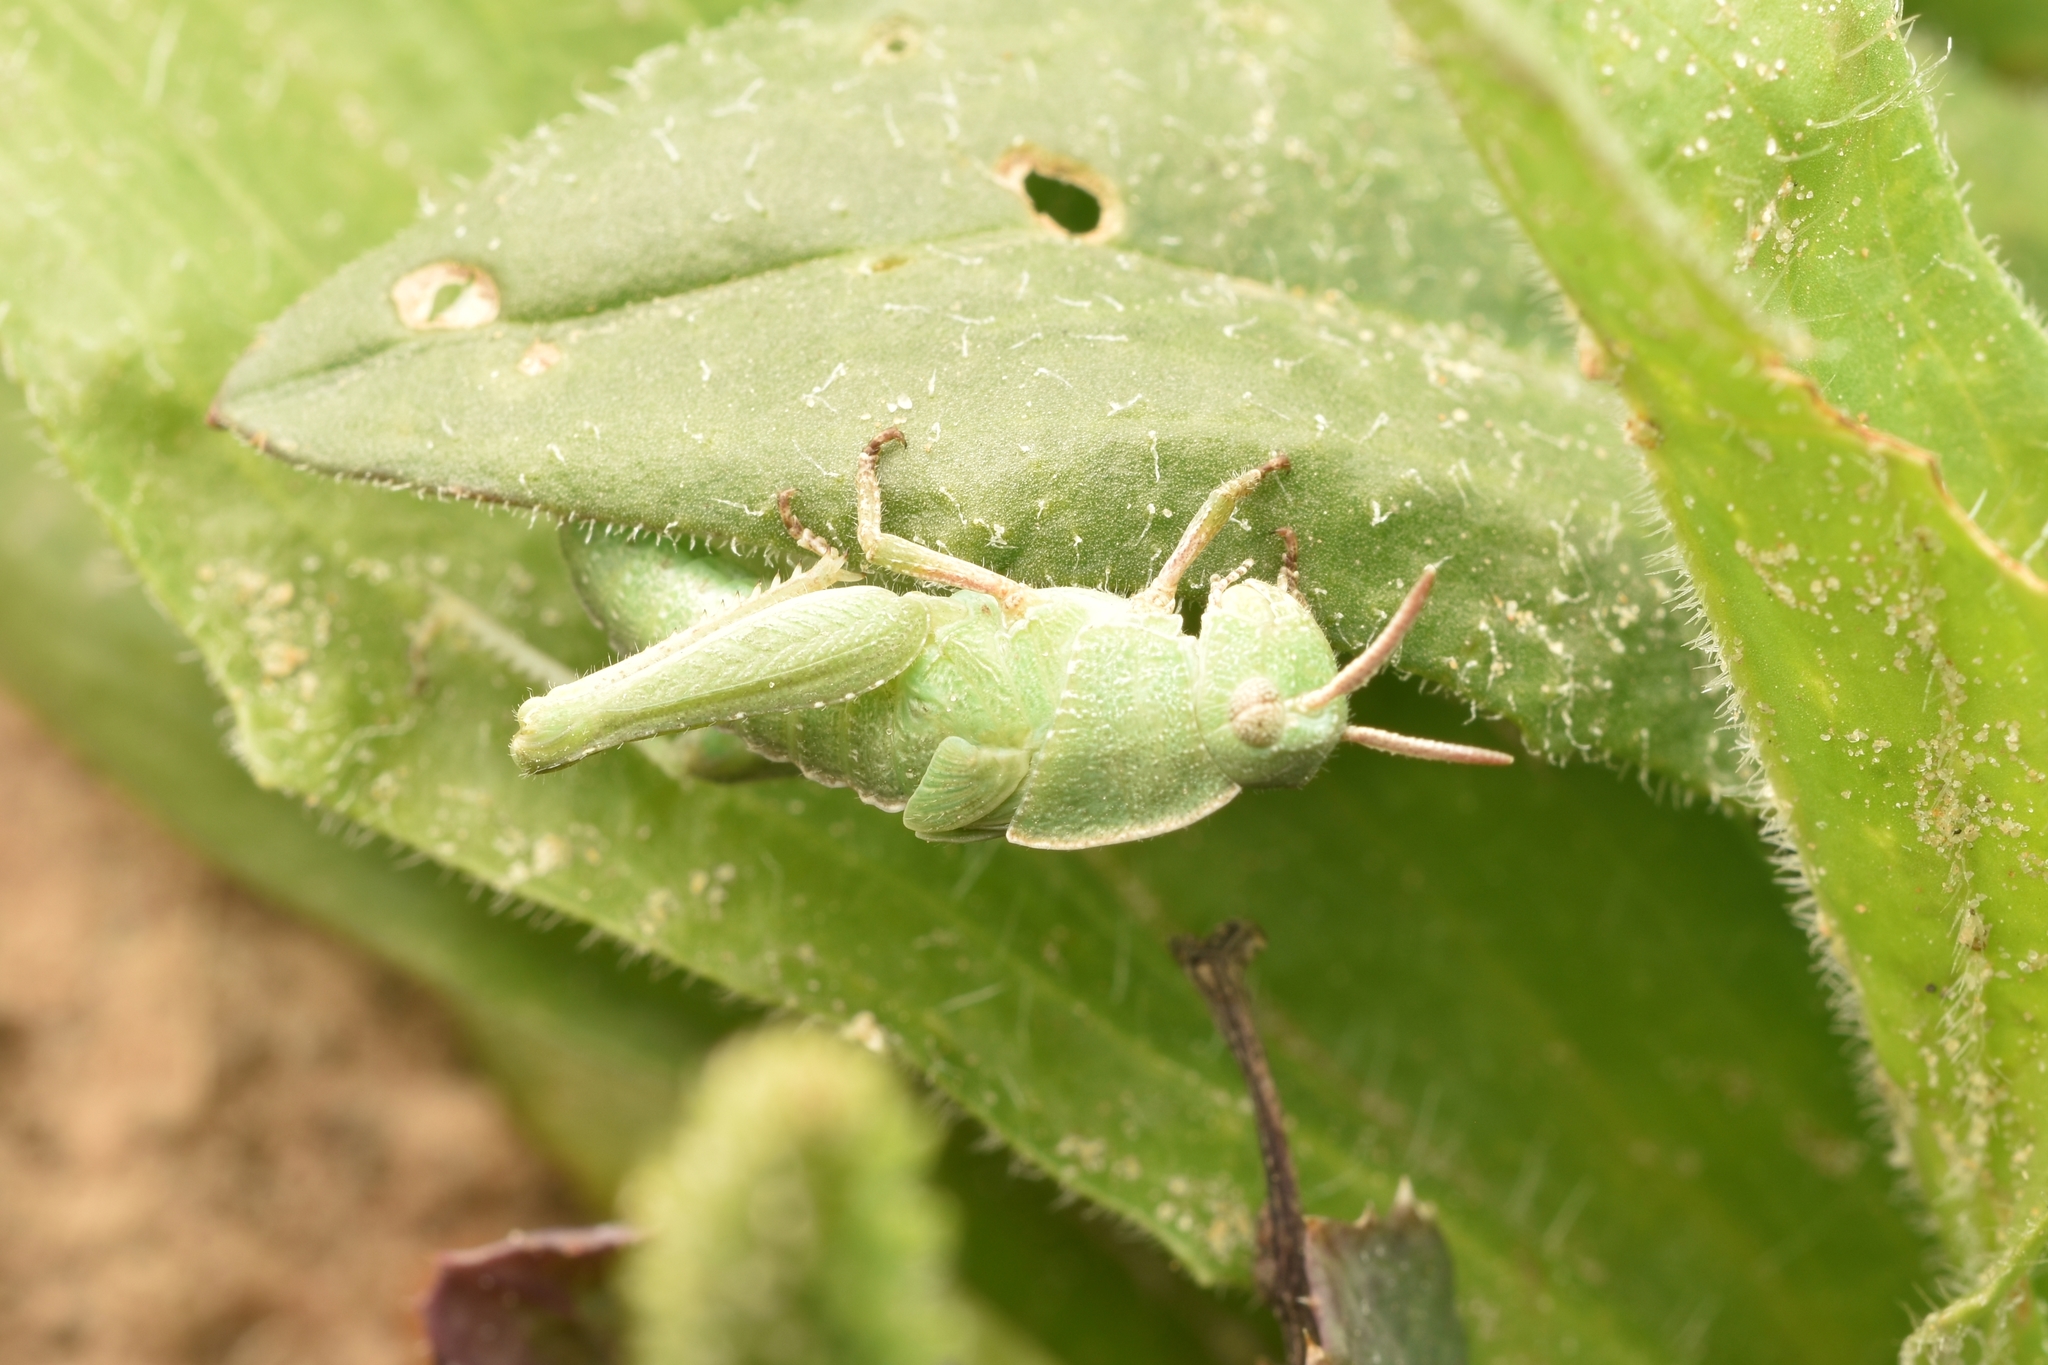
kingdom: Animalia
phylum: Arthropoda
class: Insecta
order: Orthoptera
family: Acrididae
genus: Chortophaga
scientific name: Chortophaga viridifasciata
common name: Green-striped grasshopper
